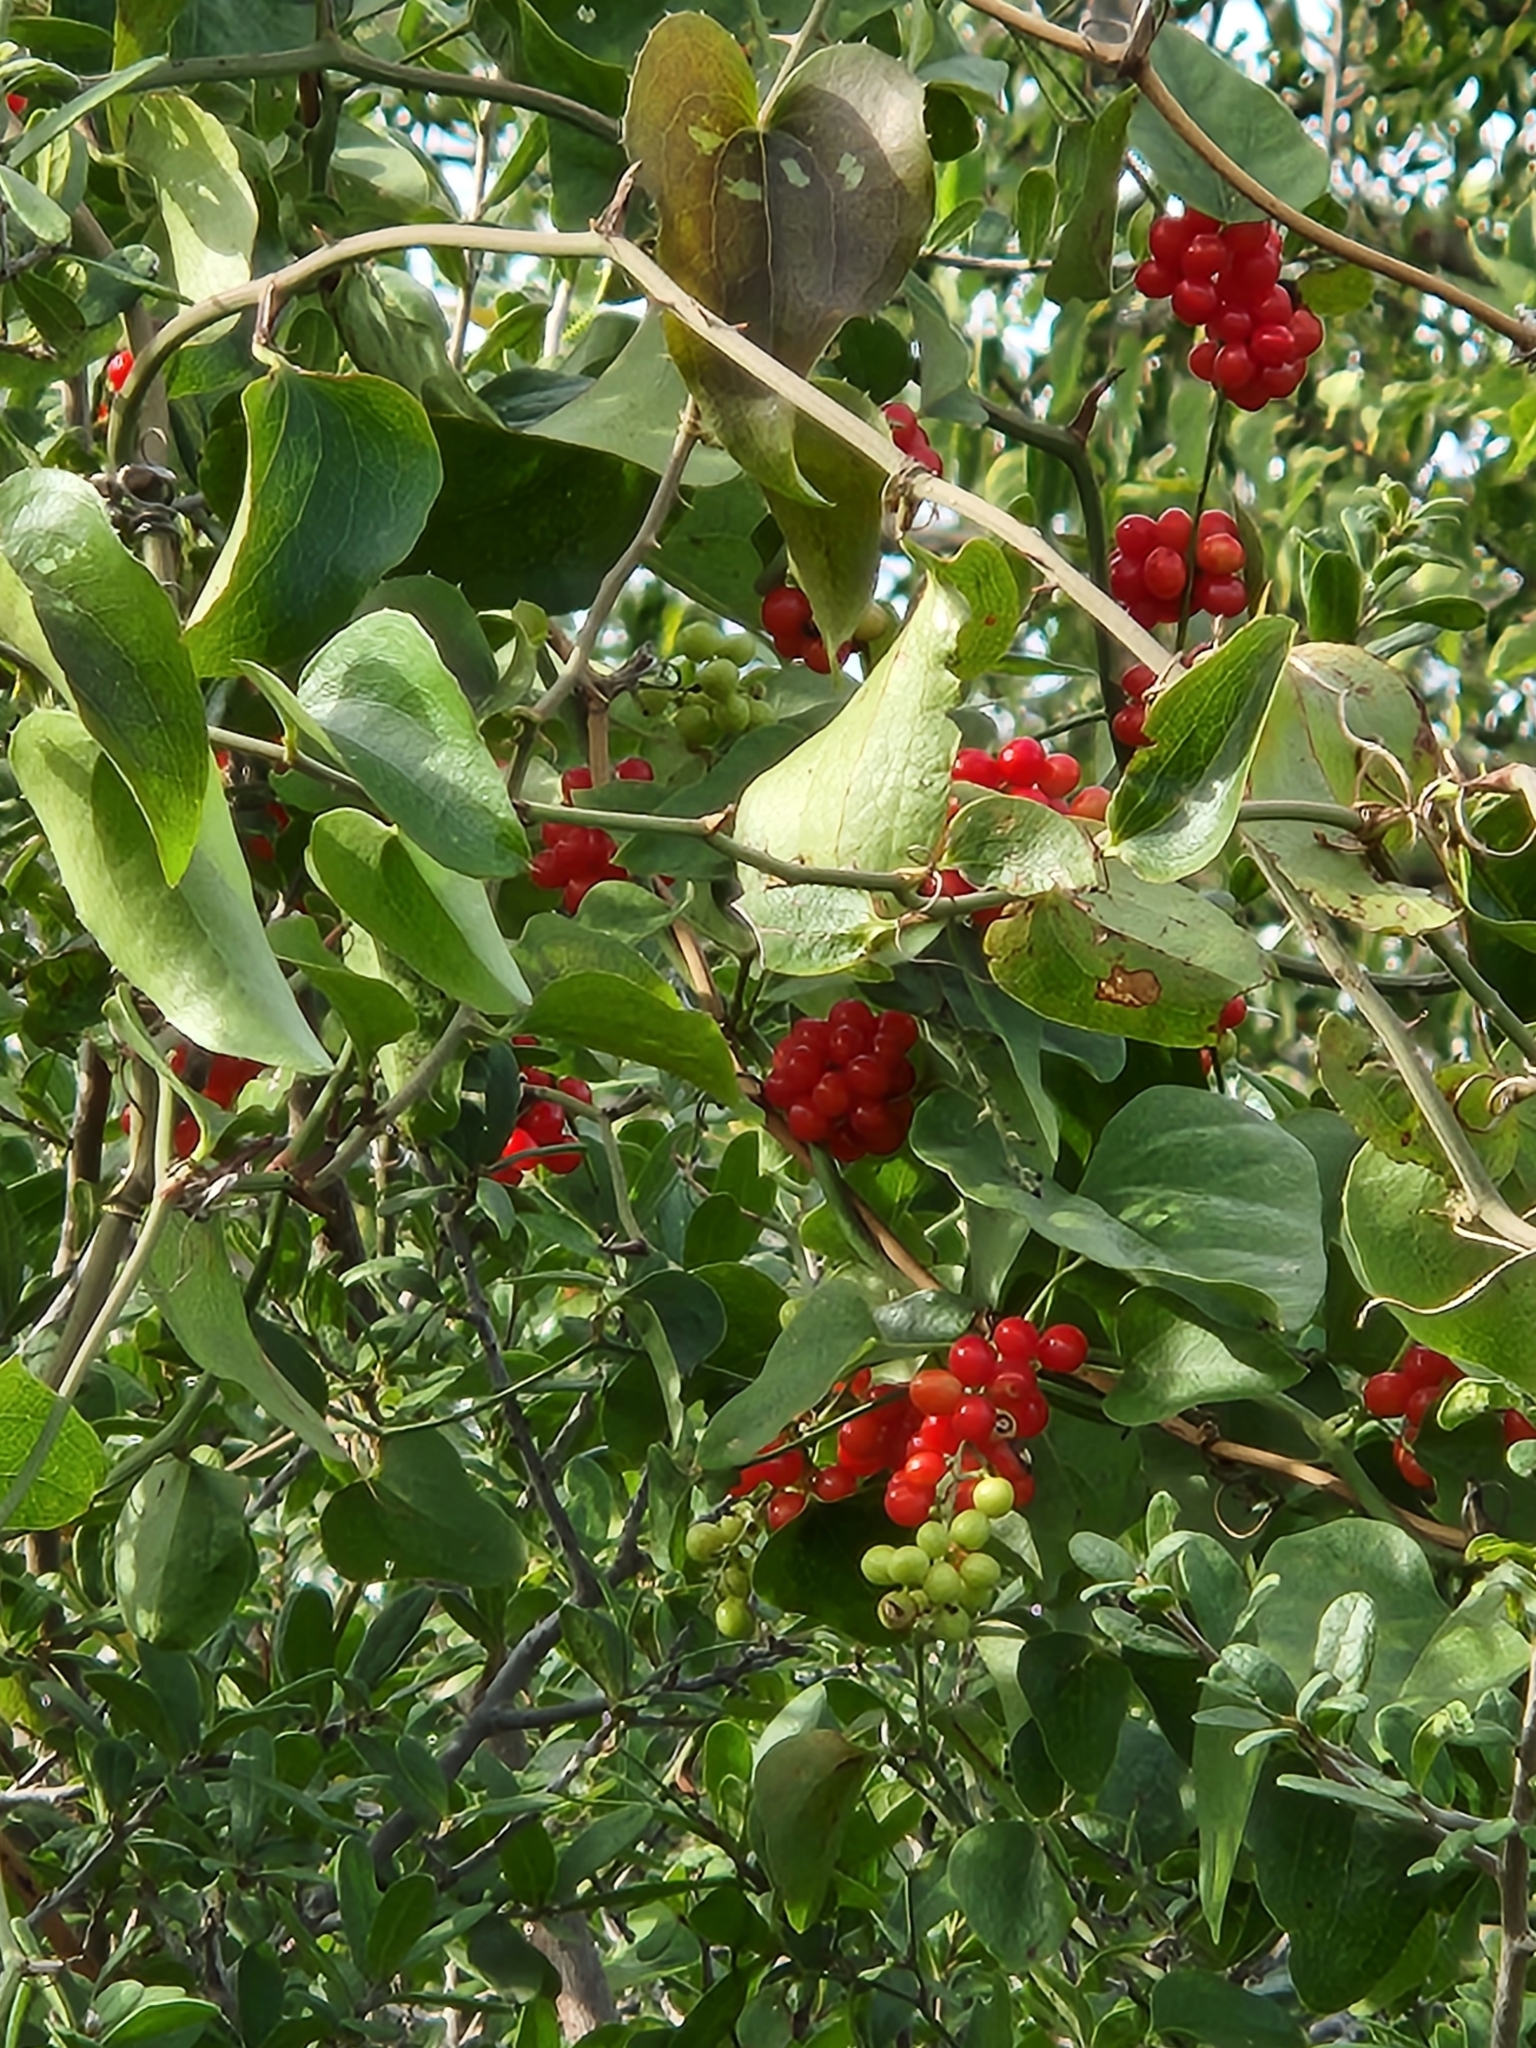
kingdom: Plantae
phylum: Tracheophyta
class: Magnoliopsida
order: Ranunculales
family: Menispermaceae
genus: Cocculus
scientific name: Cocculus carolinus
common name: Carolina moonseed
